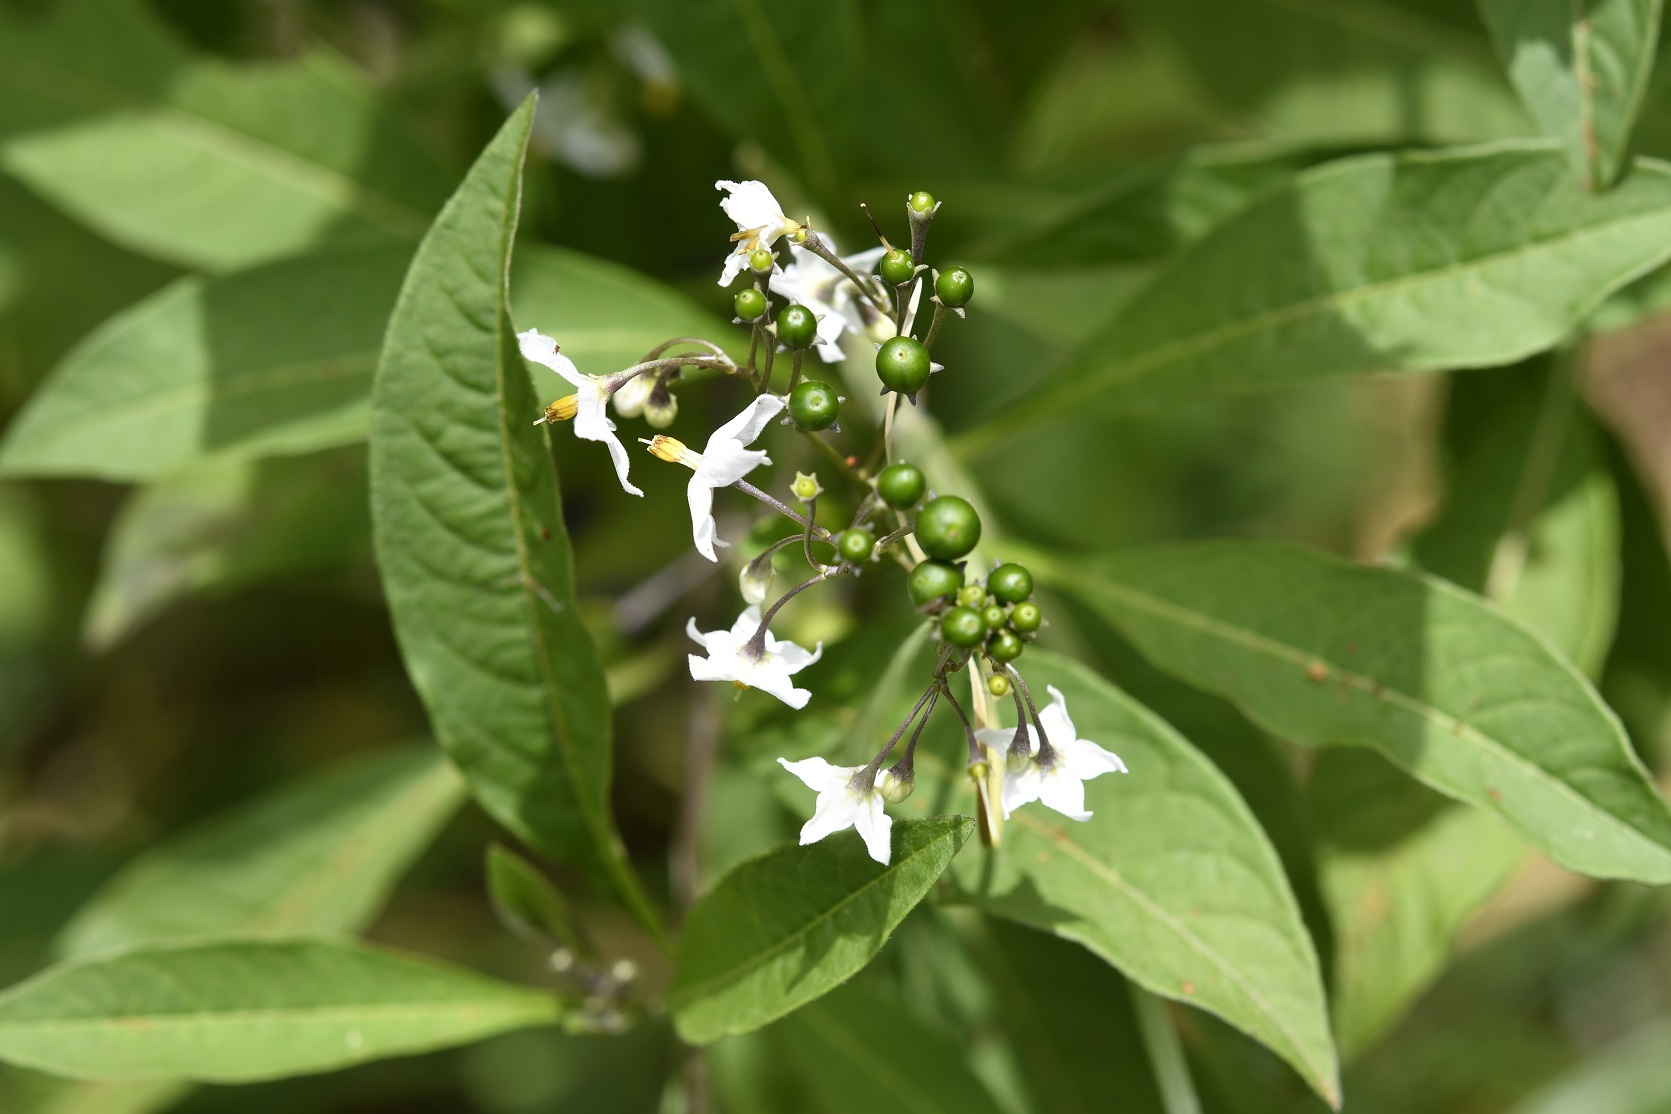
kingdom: Plantae
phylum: Tracheophyta
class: Magnoliopsida
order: Solanales
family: Solanaceae
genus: Solanum
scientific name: Solanum pubigerum
